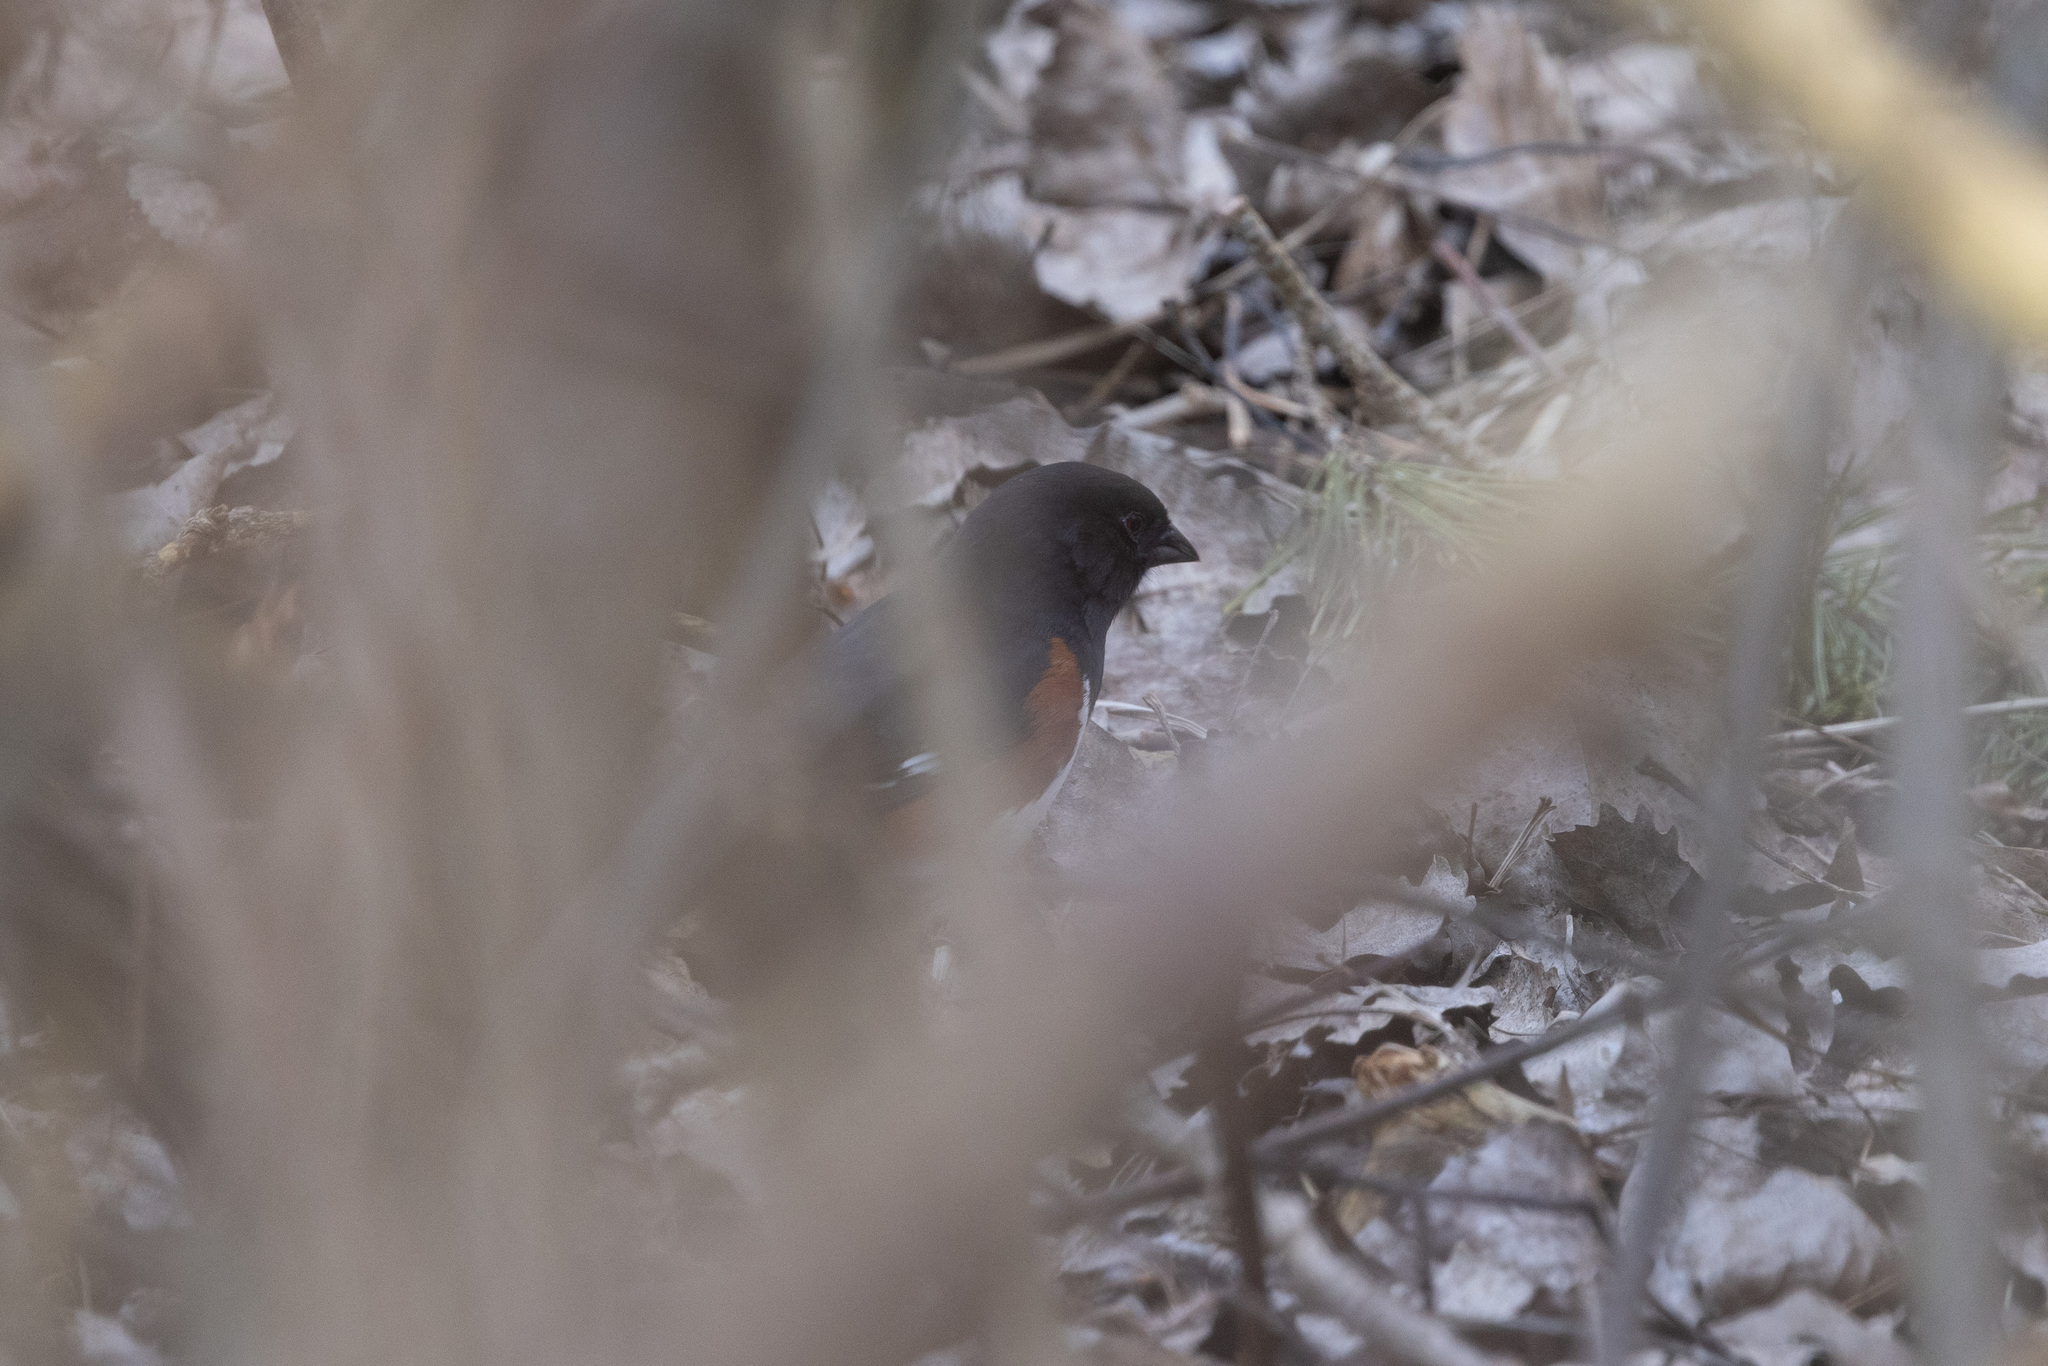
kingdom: Animalia
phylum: Chordata
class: Aves
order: Passeriformes
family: Passerellidae
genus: Pipilo
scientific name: Pipilo erythrophthalmus
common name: Eastern towhee
